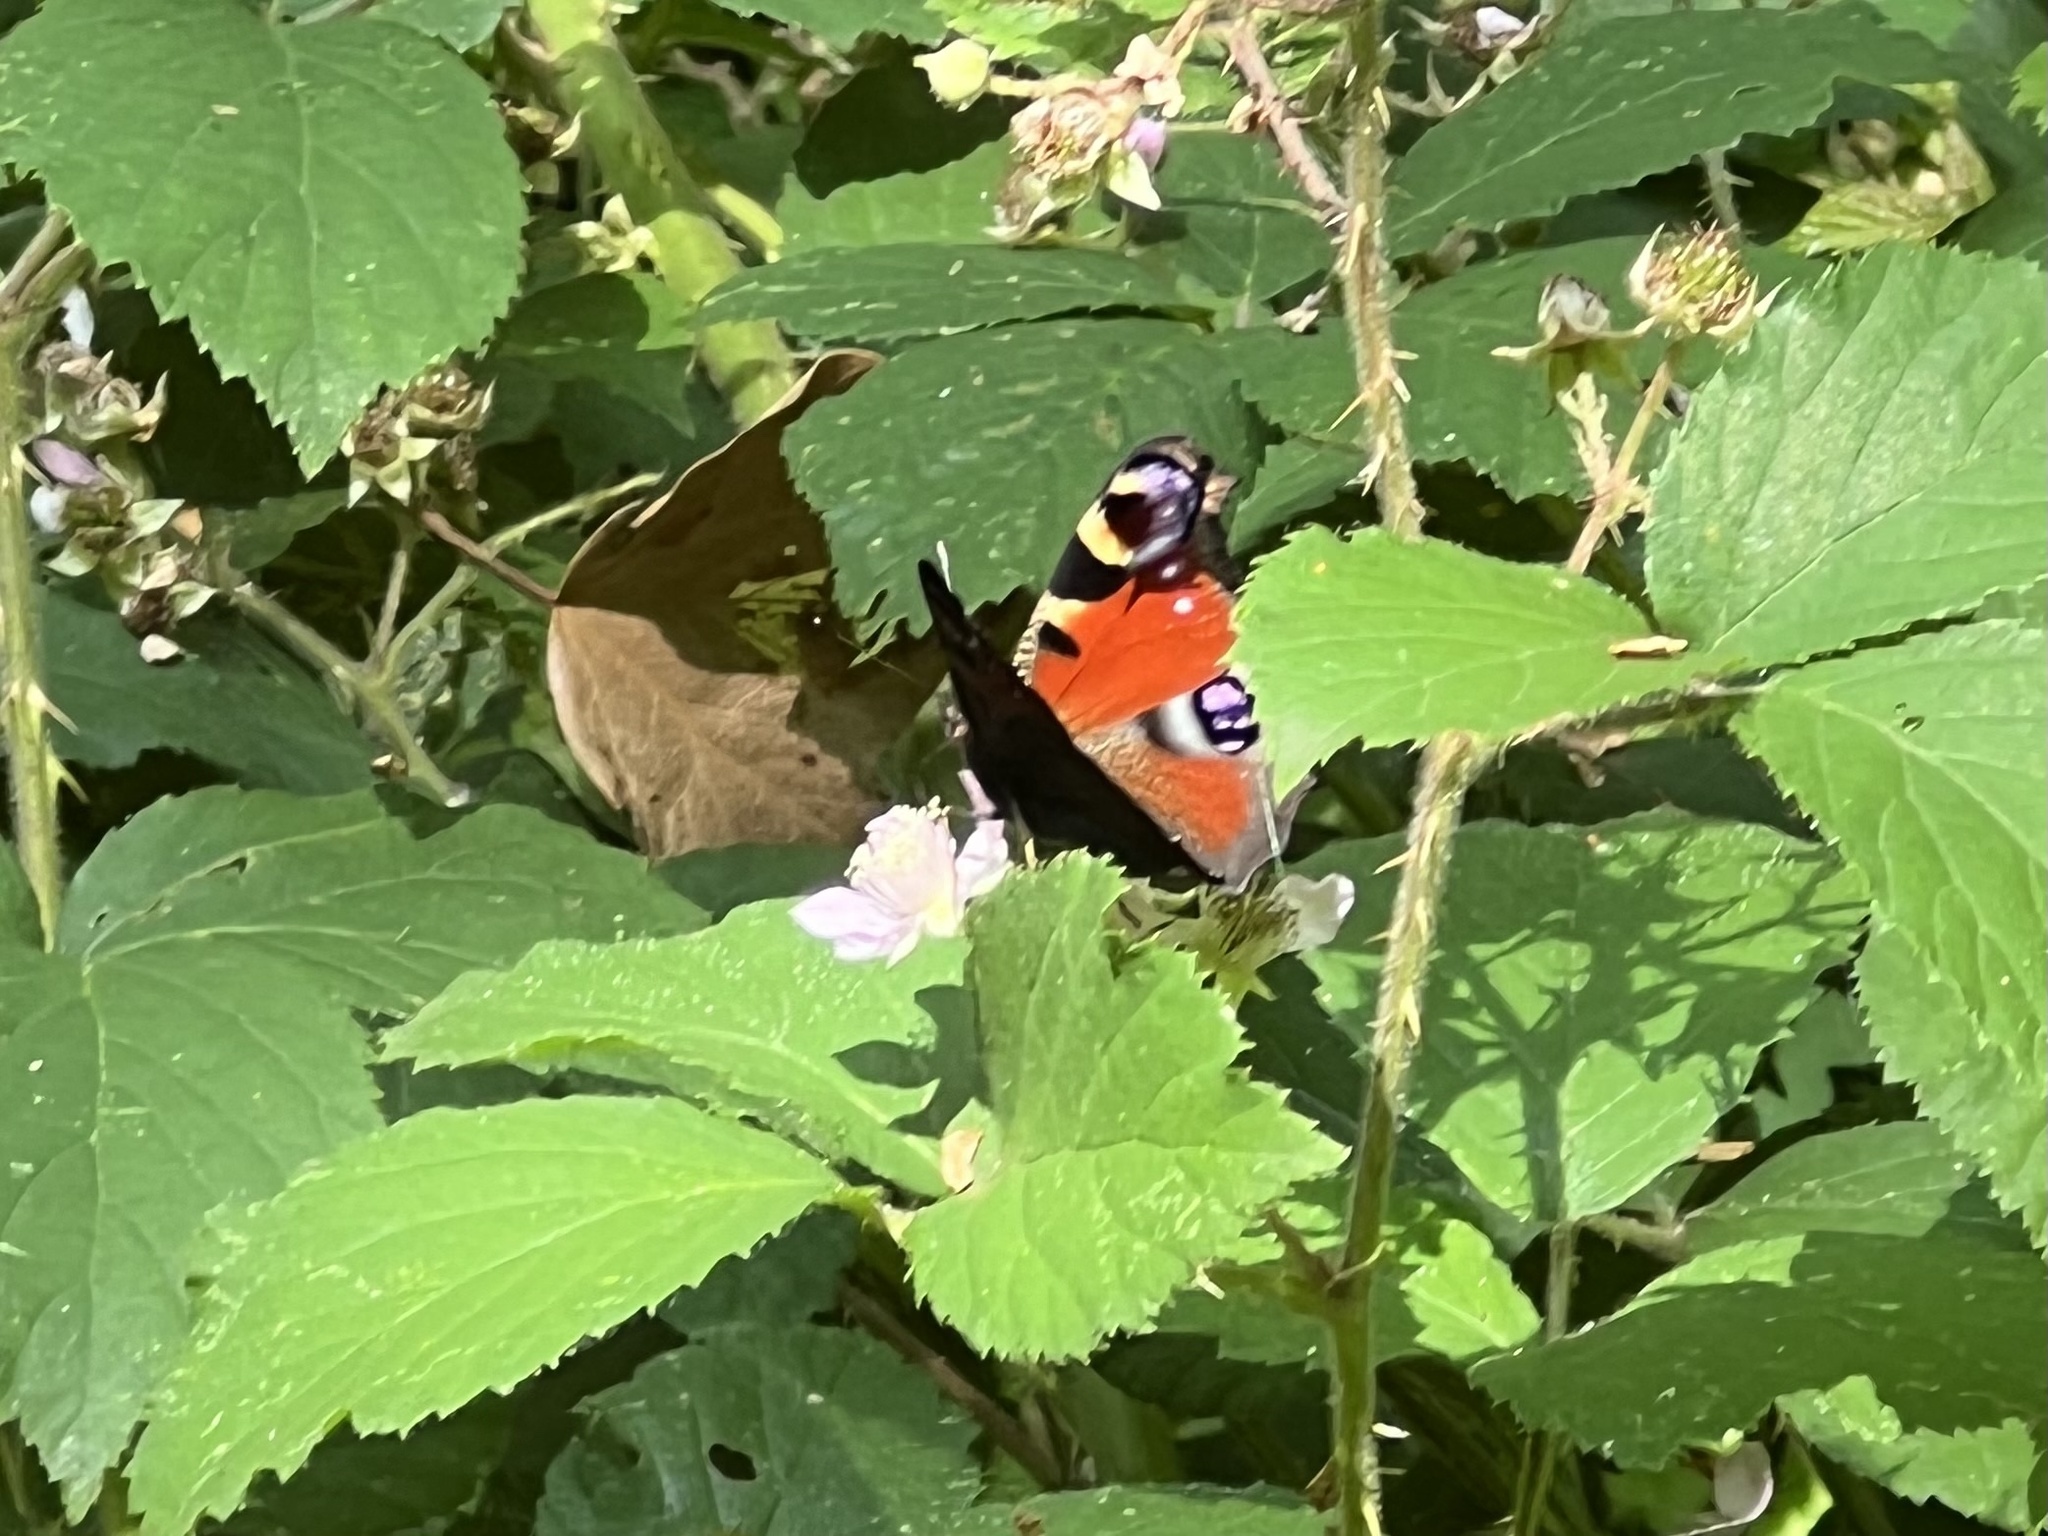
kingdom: Animalia
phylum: Arthropoda
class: Insecta
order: Lepidoptera
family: Nymphalidae
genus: Aglais
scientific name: Aglais io
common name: Peacock
